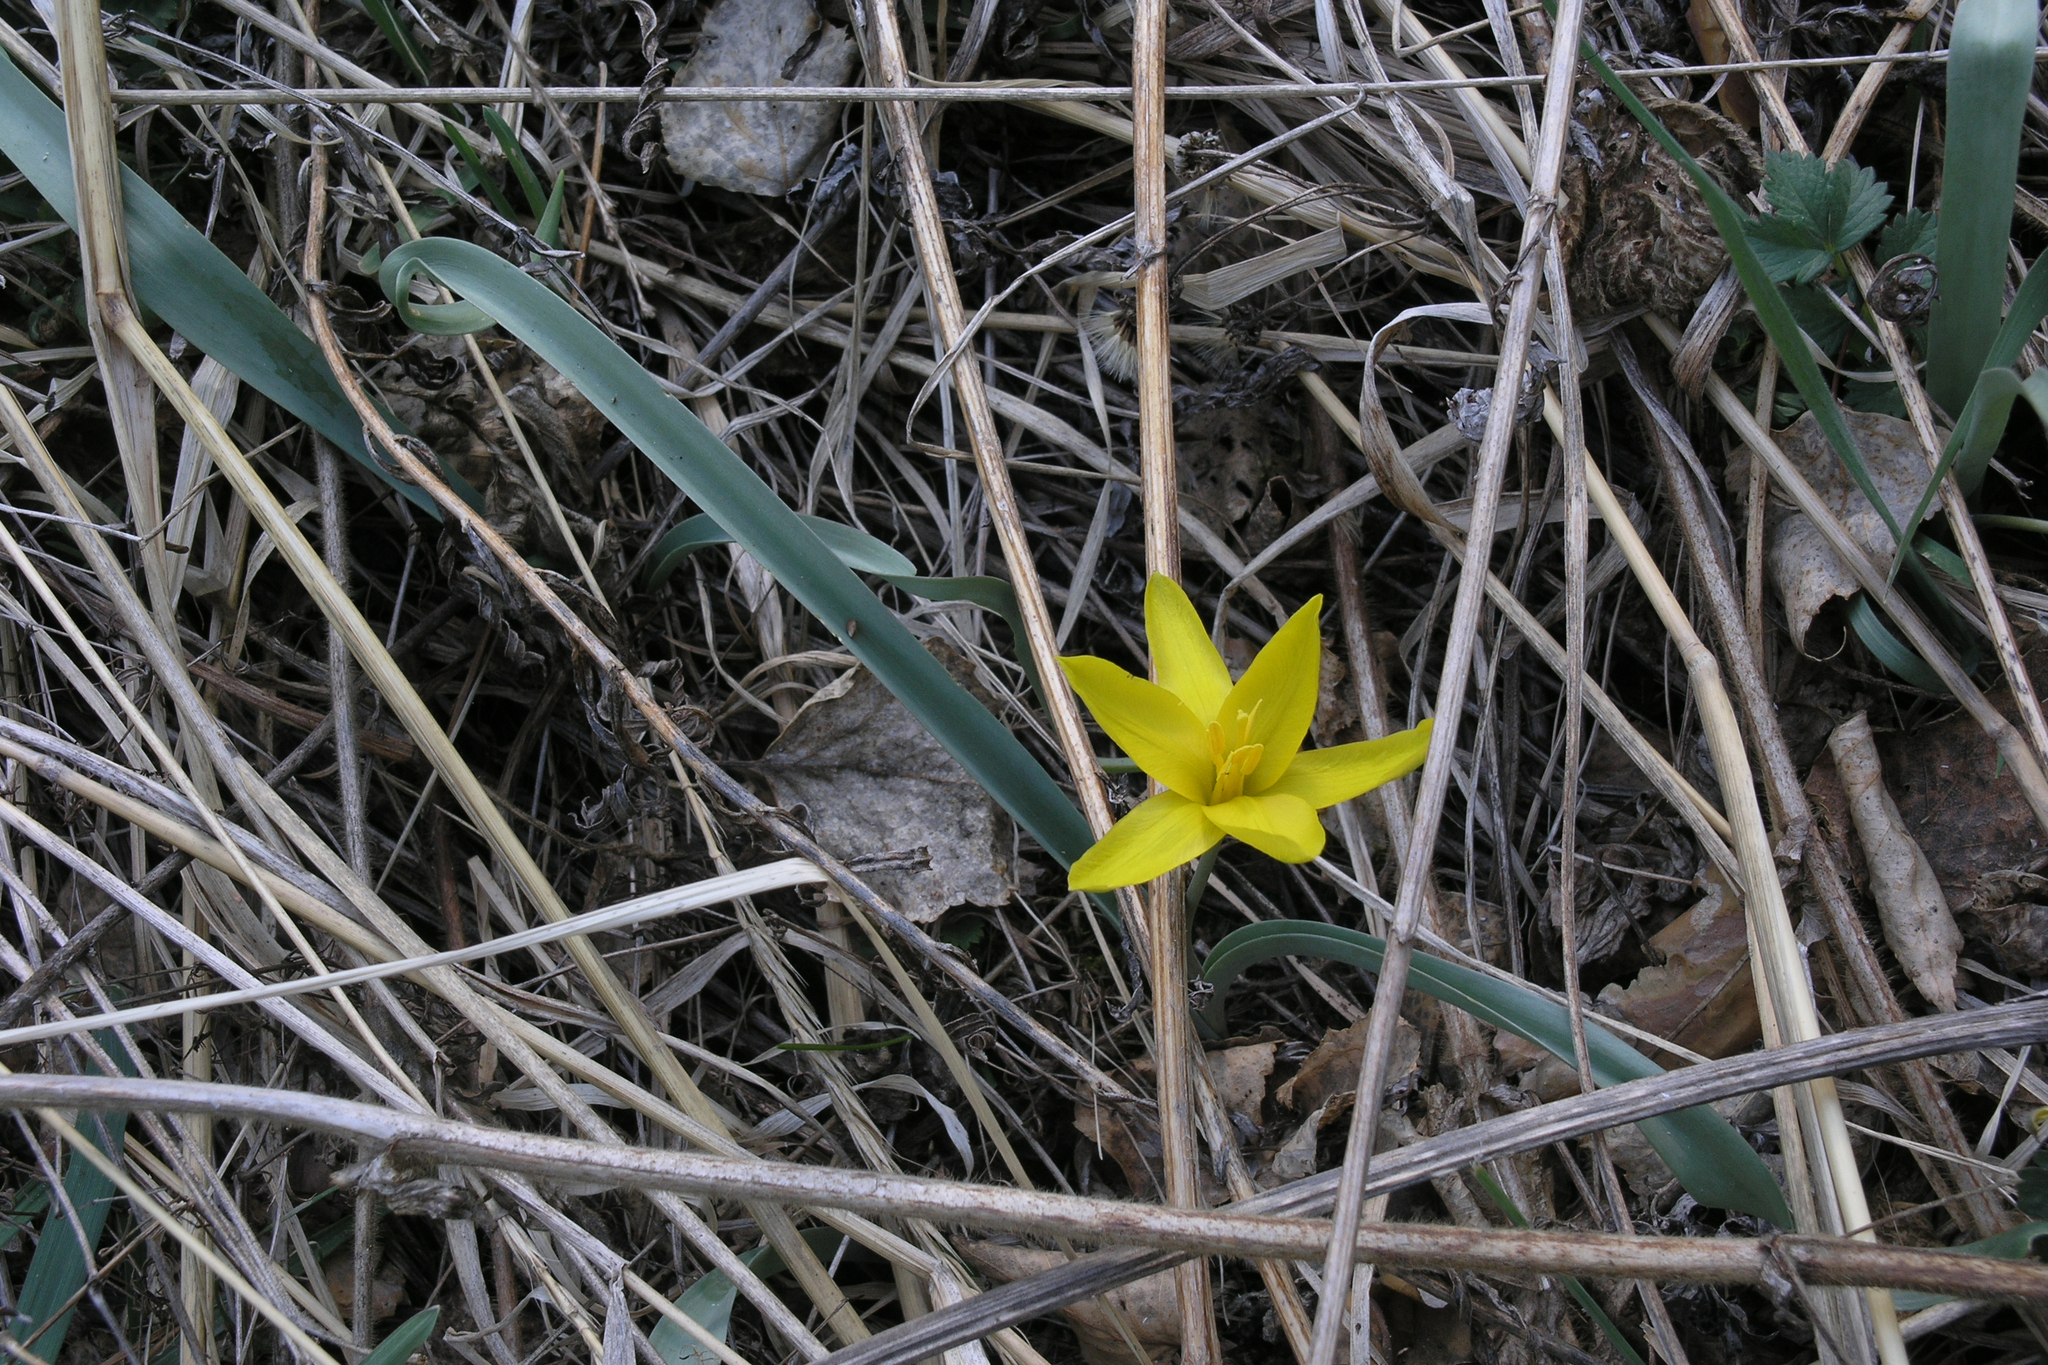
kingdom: Plantae
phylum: Tracheophyta
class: Liliopsida
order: Liliales
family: Liliaceae
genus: Tulipa
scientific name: Tulipa uniflora
